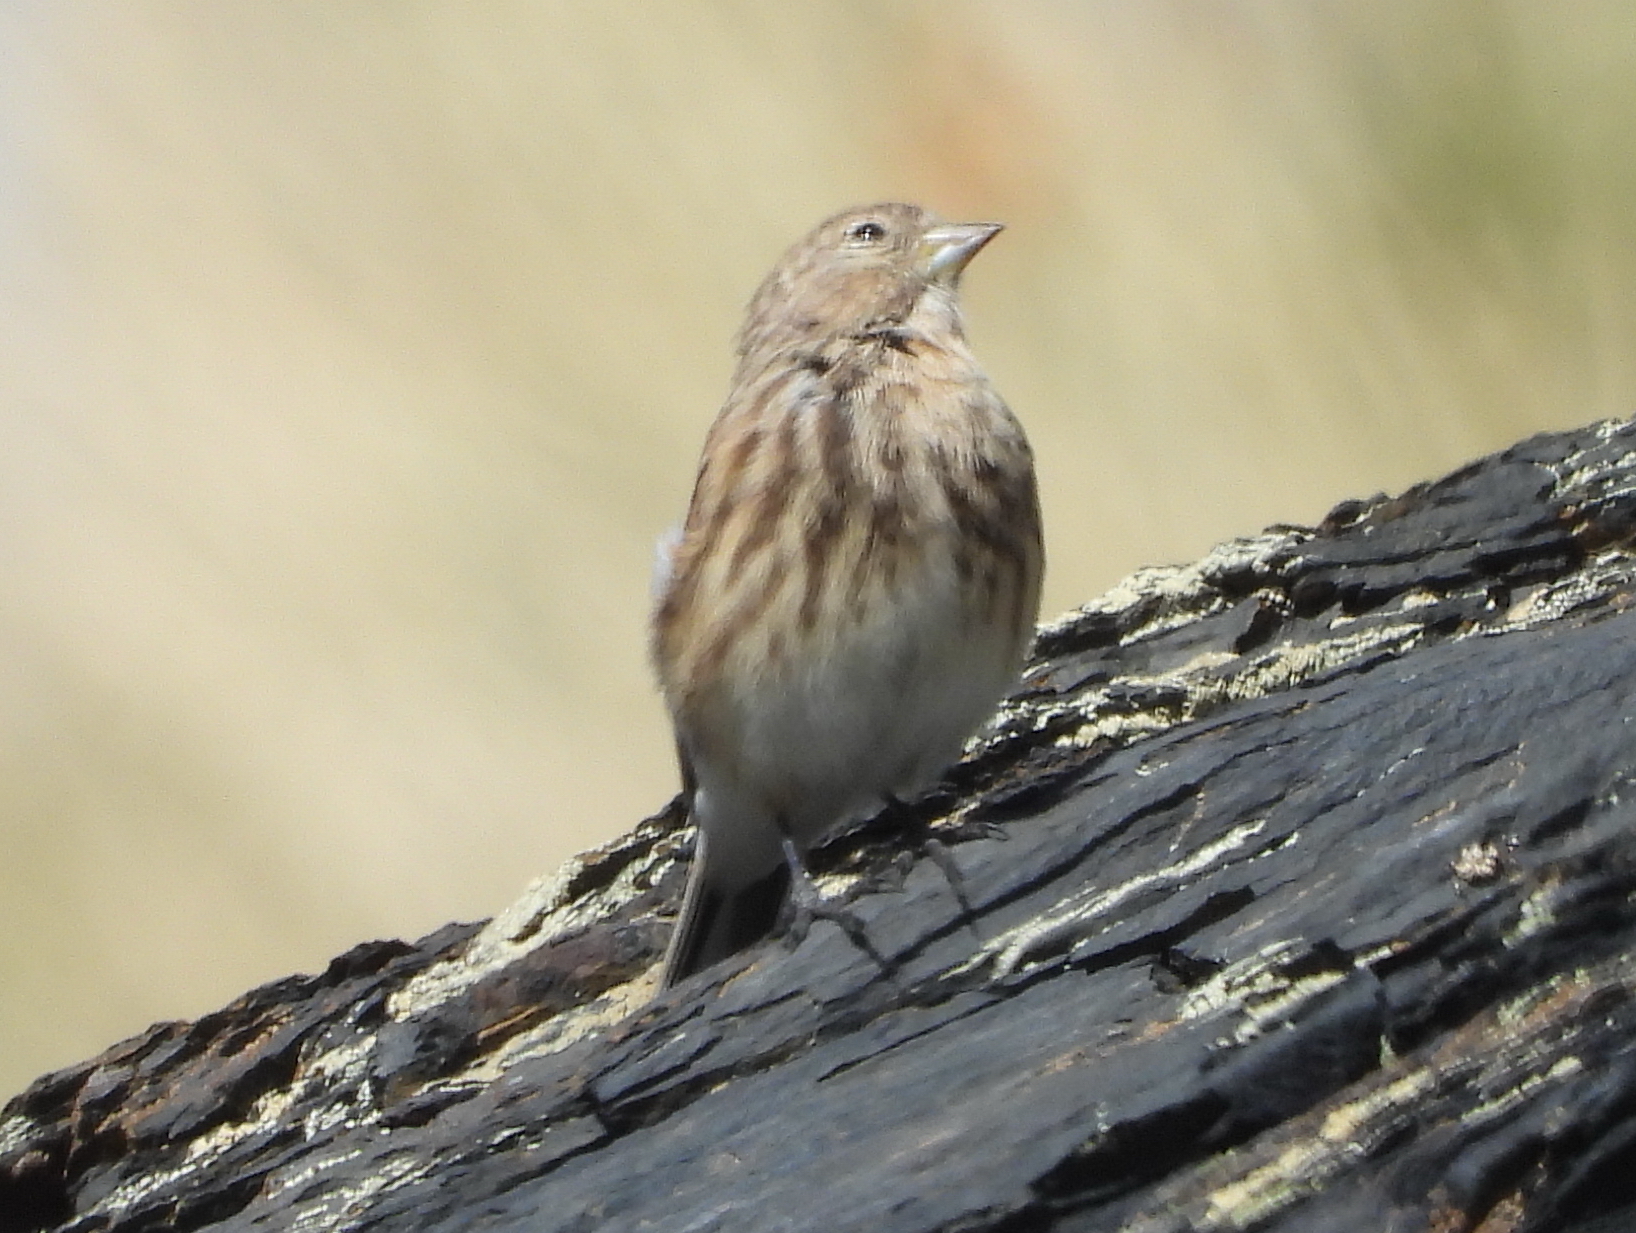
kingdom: Animalia
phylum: Chordata
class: Aves
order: Passeriformes
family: Fringillidae
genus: Linaria
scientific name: Linaria flavirostris
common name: Twite
